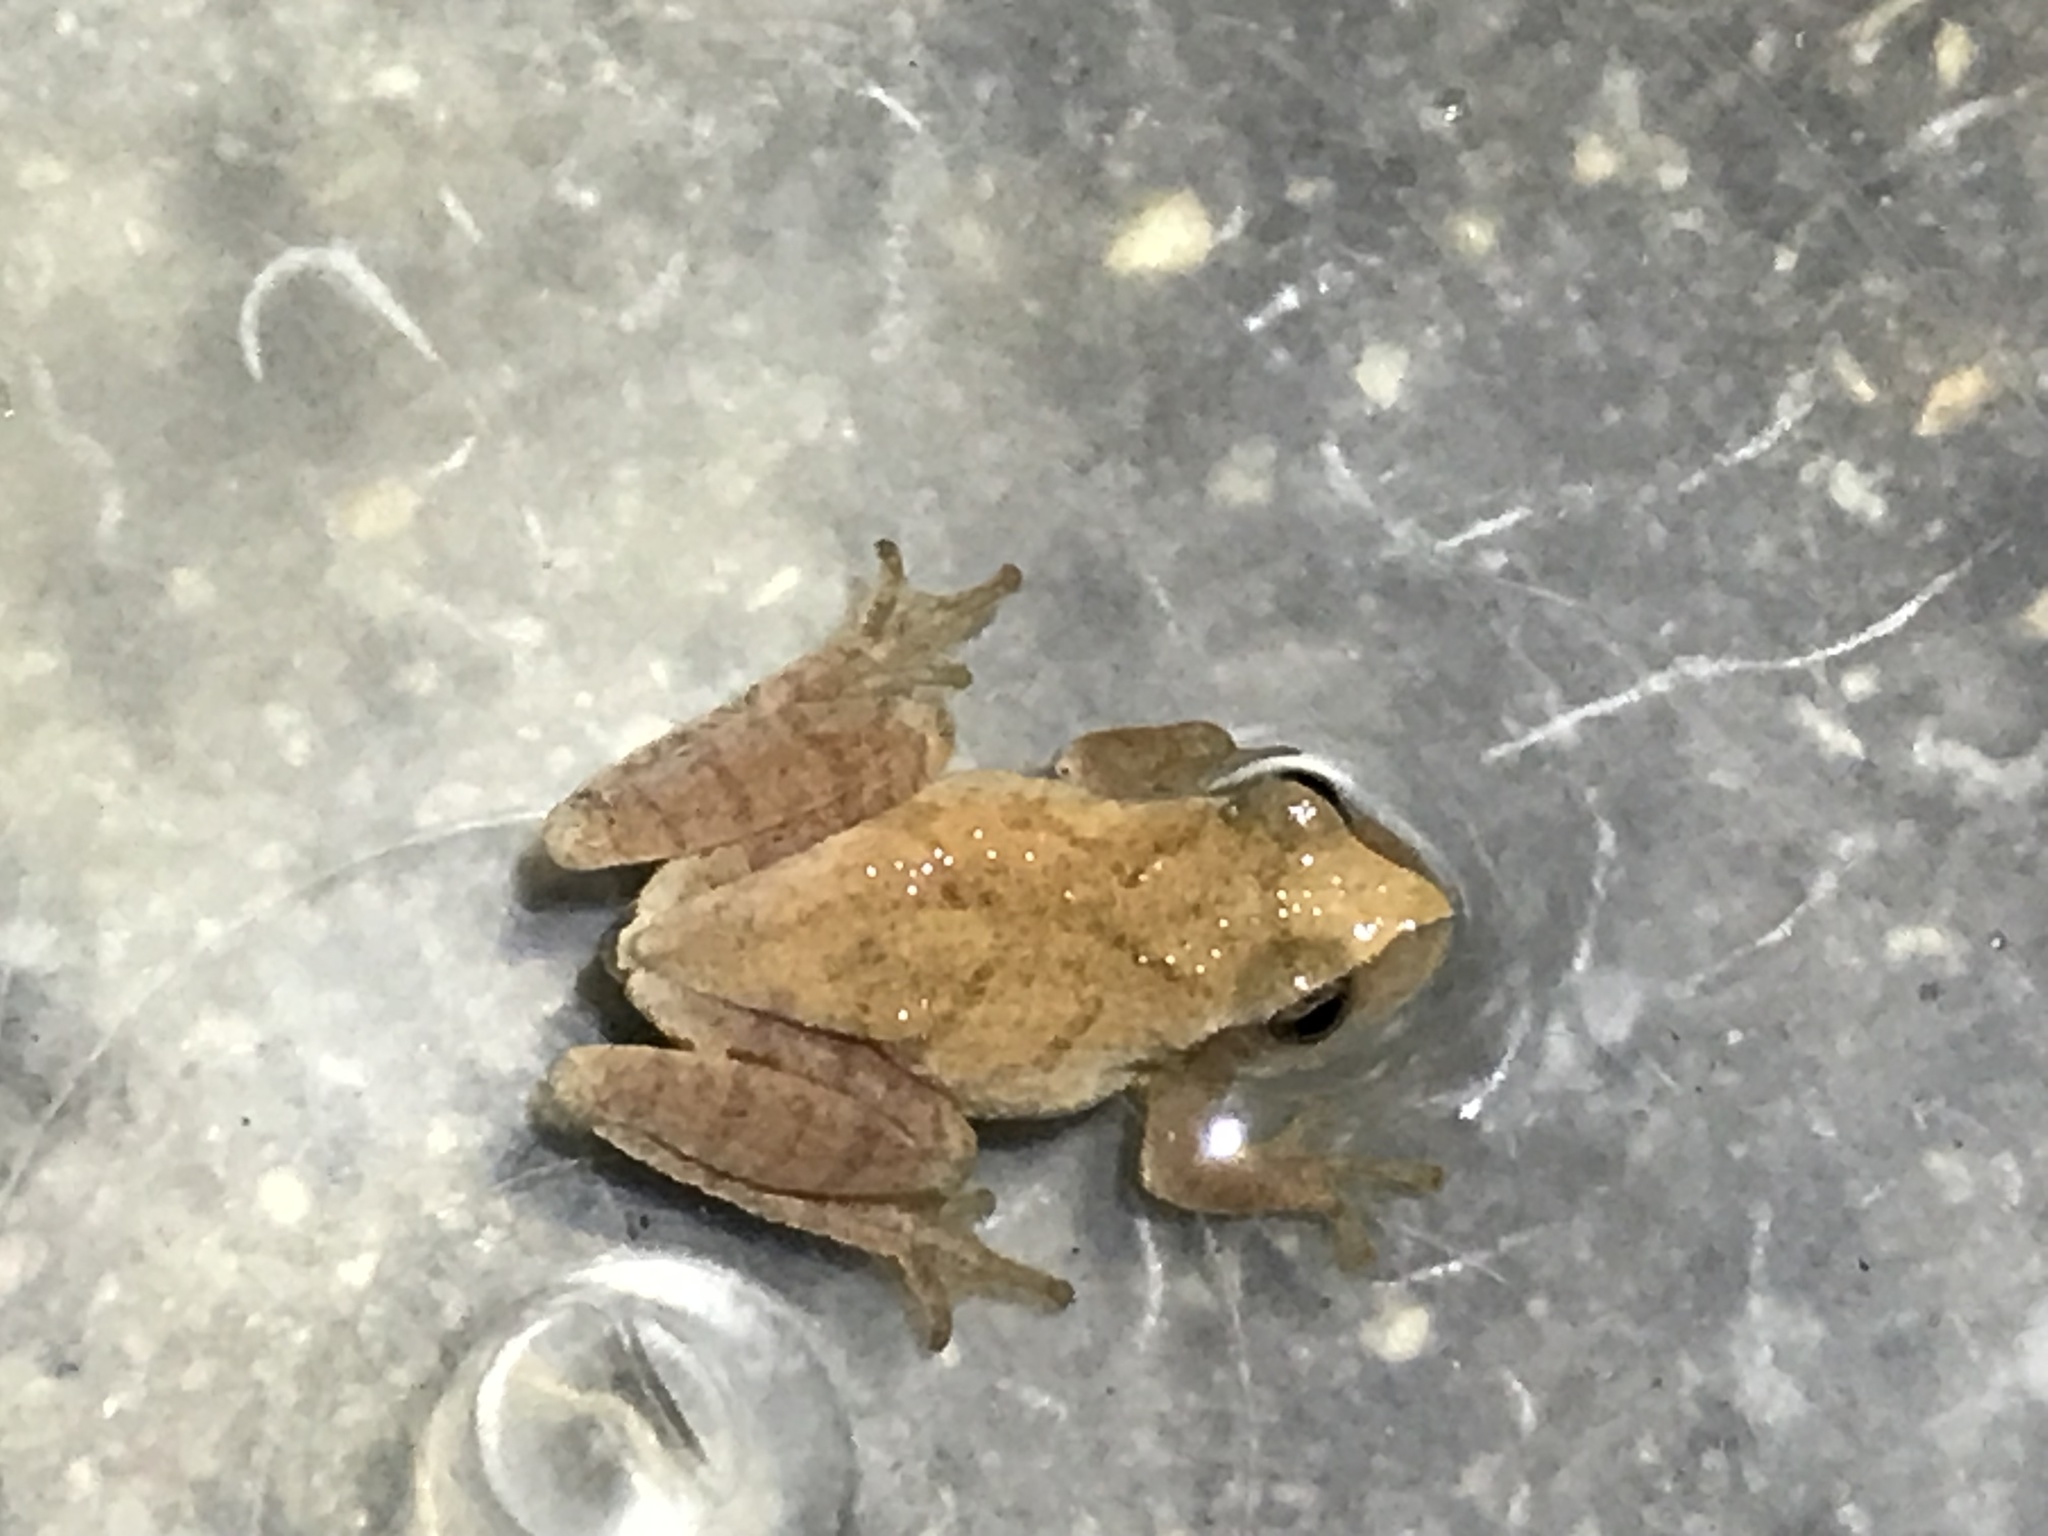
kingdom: Animalia
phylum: Chordata
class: Amphibia
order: Anura
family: Hylidae
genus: Pseudacris
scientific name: Pseudacris crucifer
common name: Spring peeper
